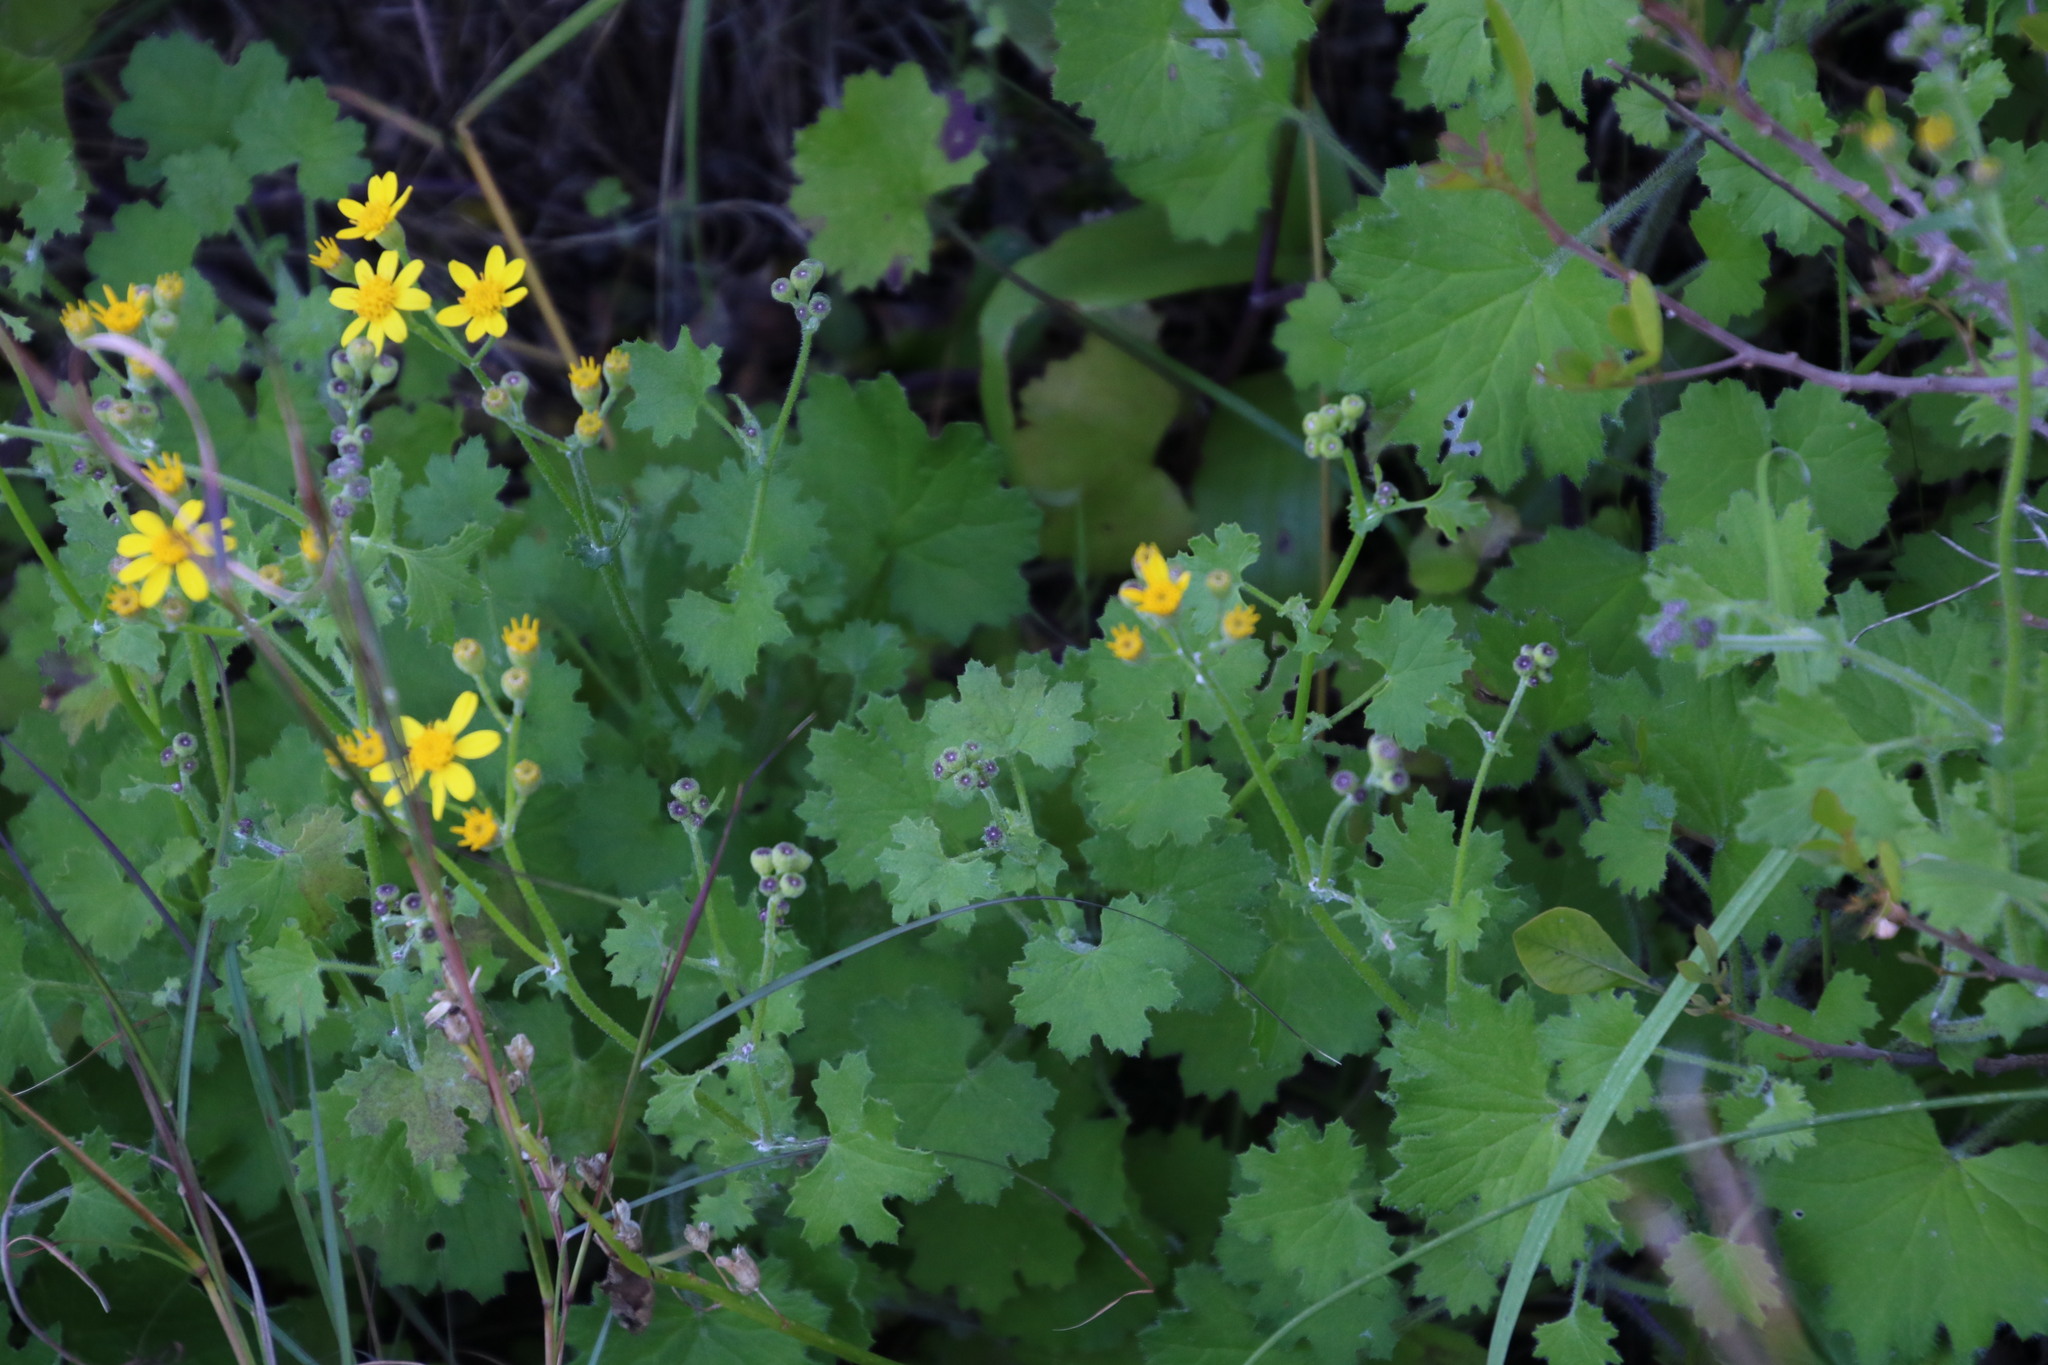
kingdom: Plantae
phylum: Tracheophyta
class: Magnoliopsida
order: Asterales
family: Asteraceae
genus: Cineraria
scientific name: Cineraria geifolia
